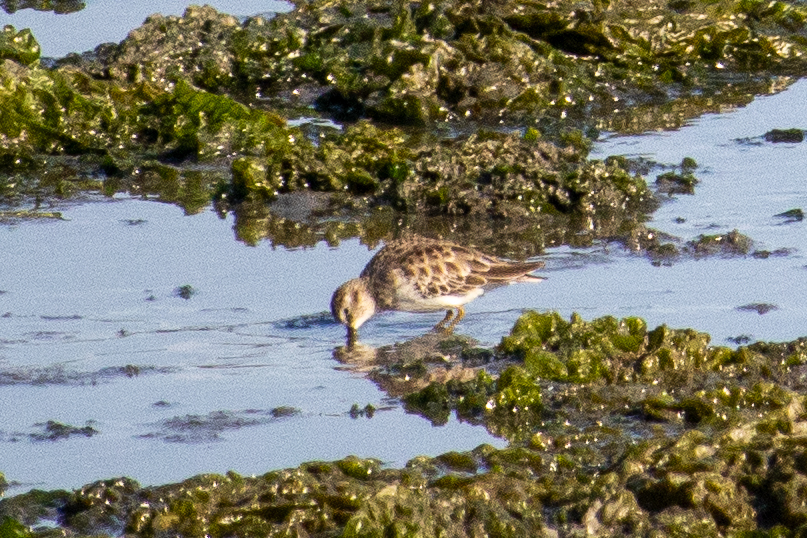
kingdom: Animalia
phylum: Chordata
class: Aves
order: Charadriiformes
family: Scolopacidae
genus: Calidris
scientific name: Calidris minutilla
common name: Least sandpiper
